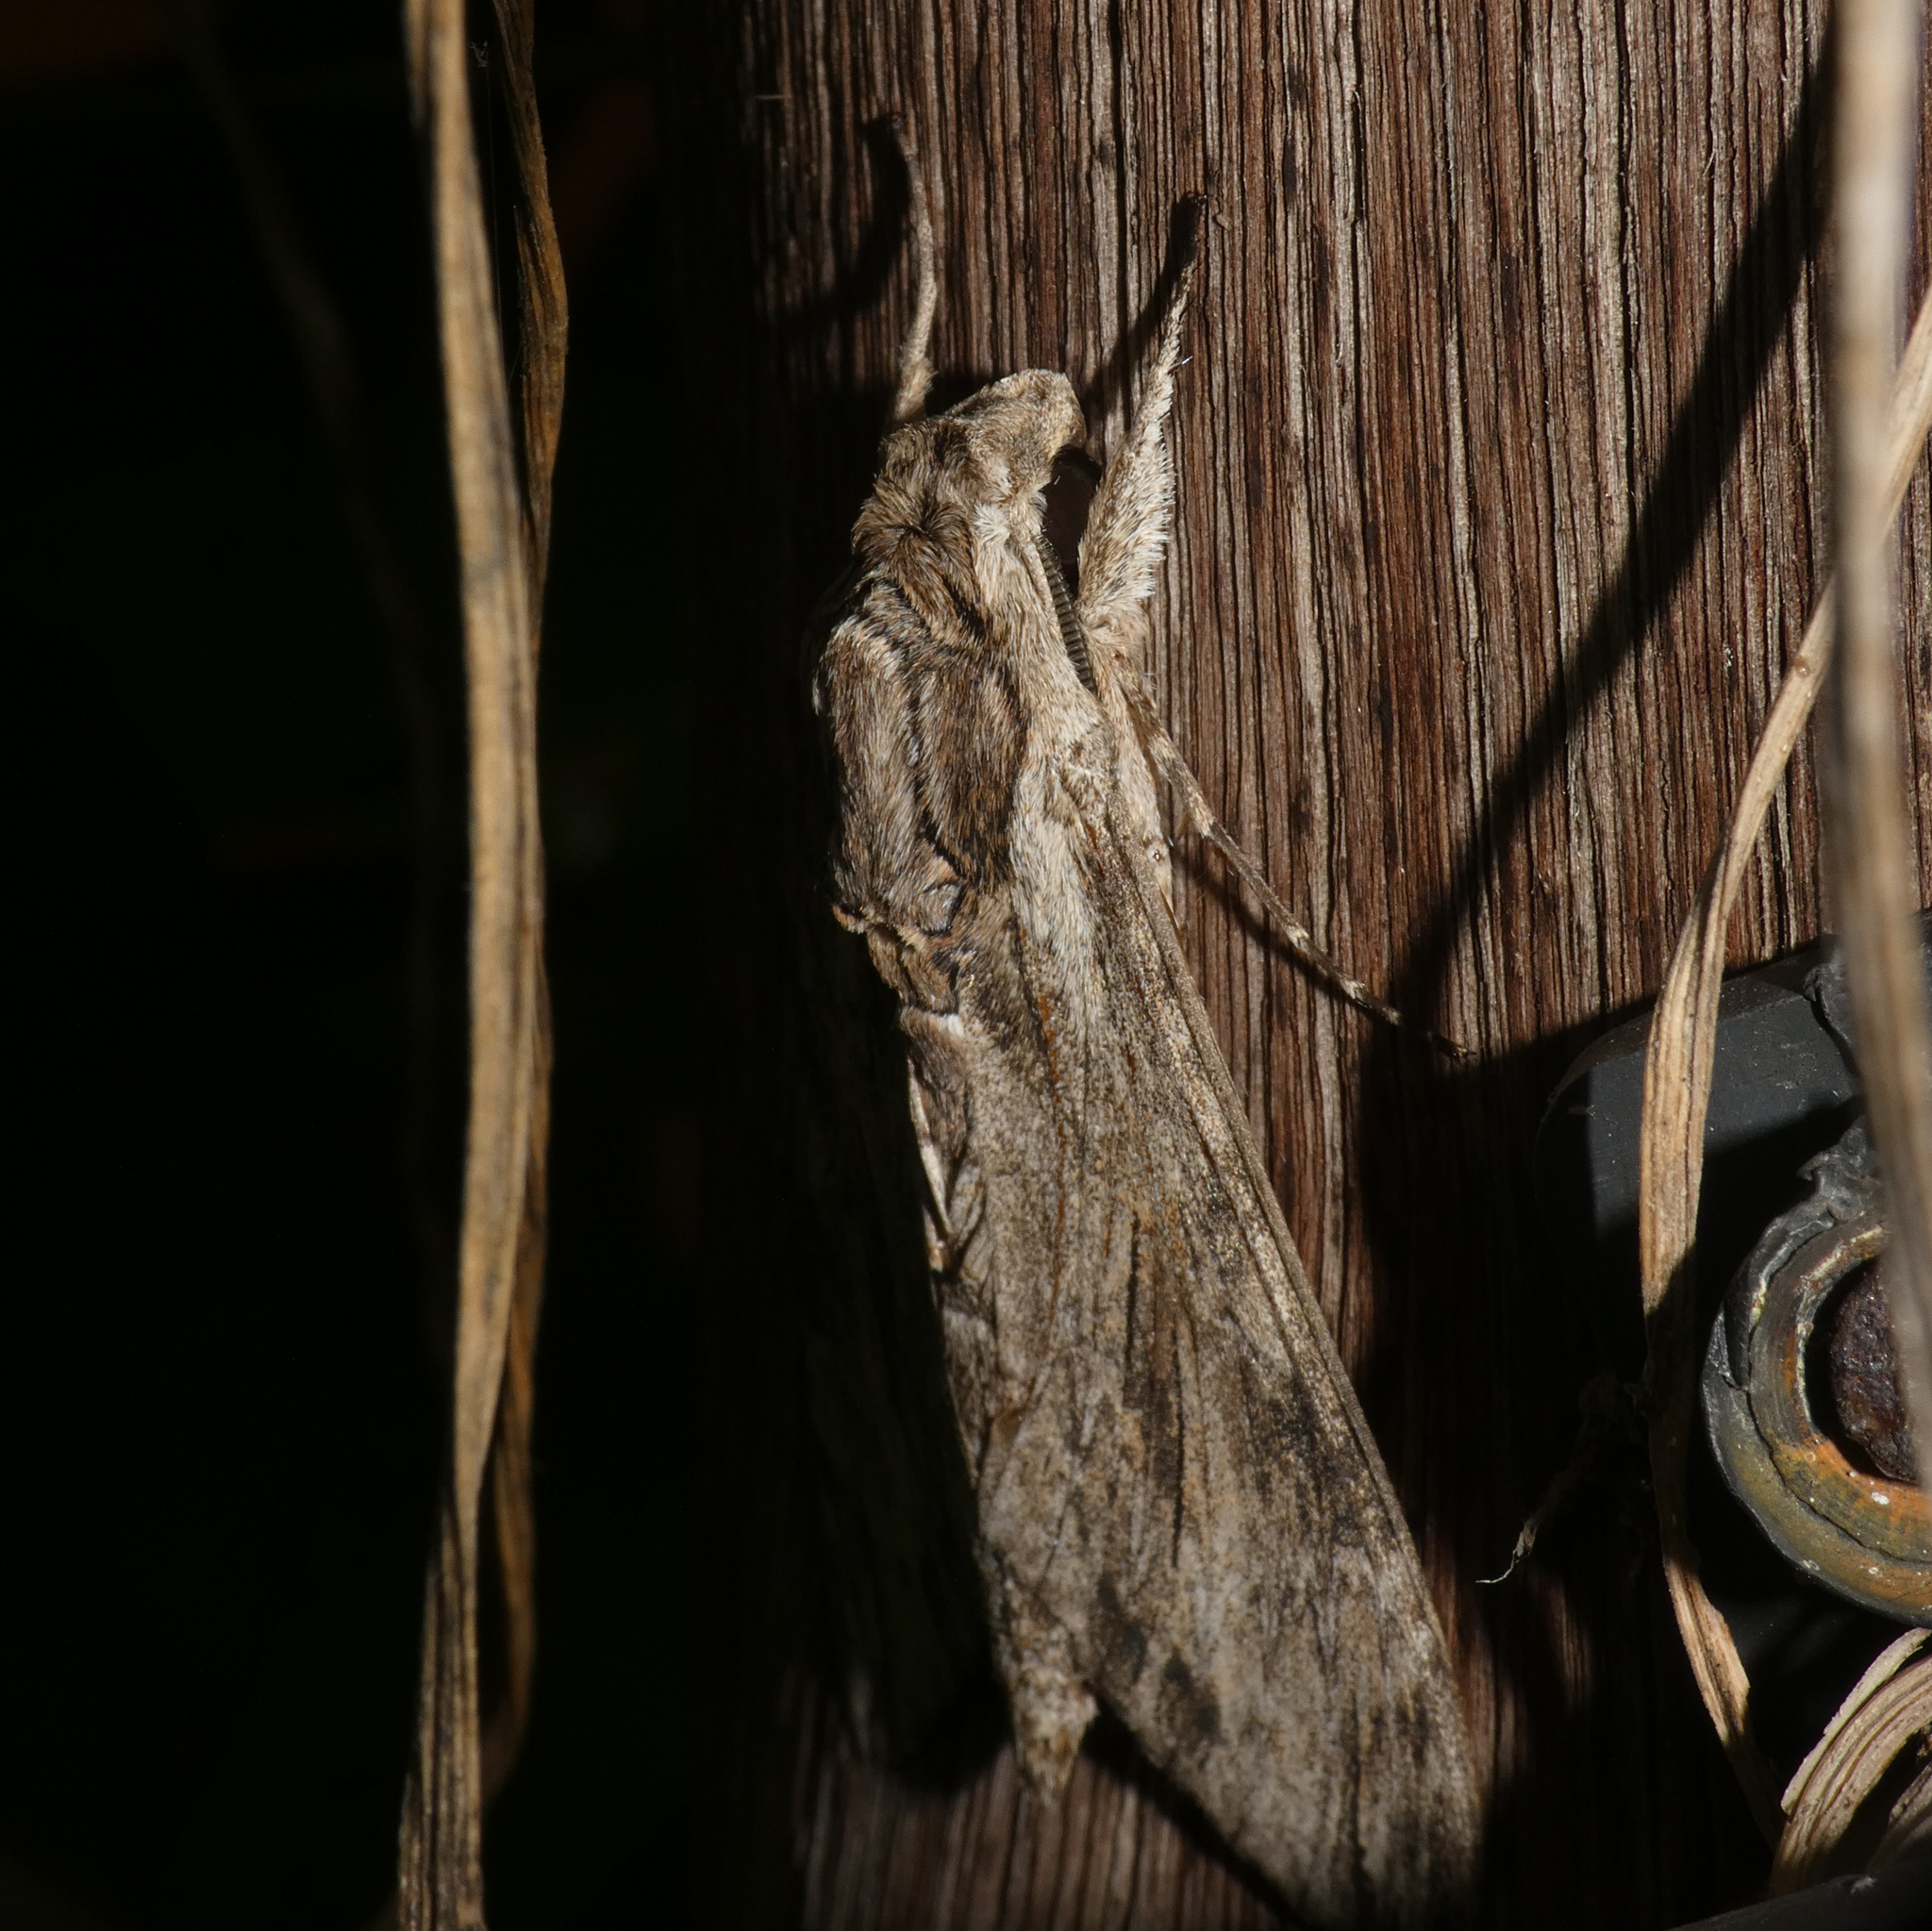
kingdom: Animalia
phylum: Arthropoda
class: Insecta
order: Lepidoptera
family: Sphingidae
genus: Agrius
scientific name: Agrius convolvuli
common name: Convolvulus hawkmoth
